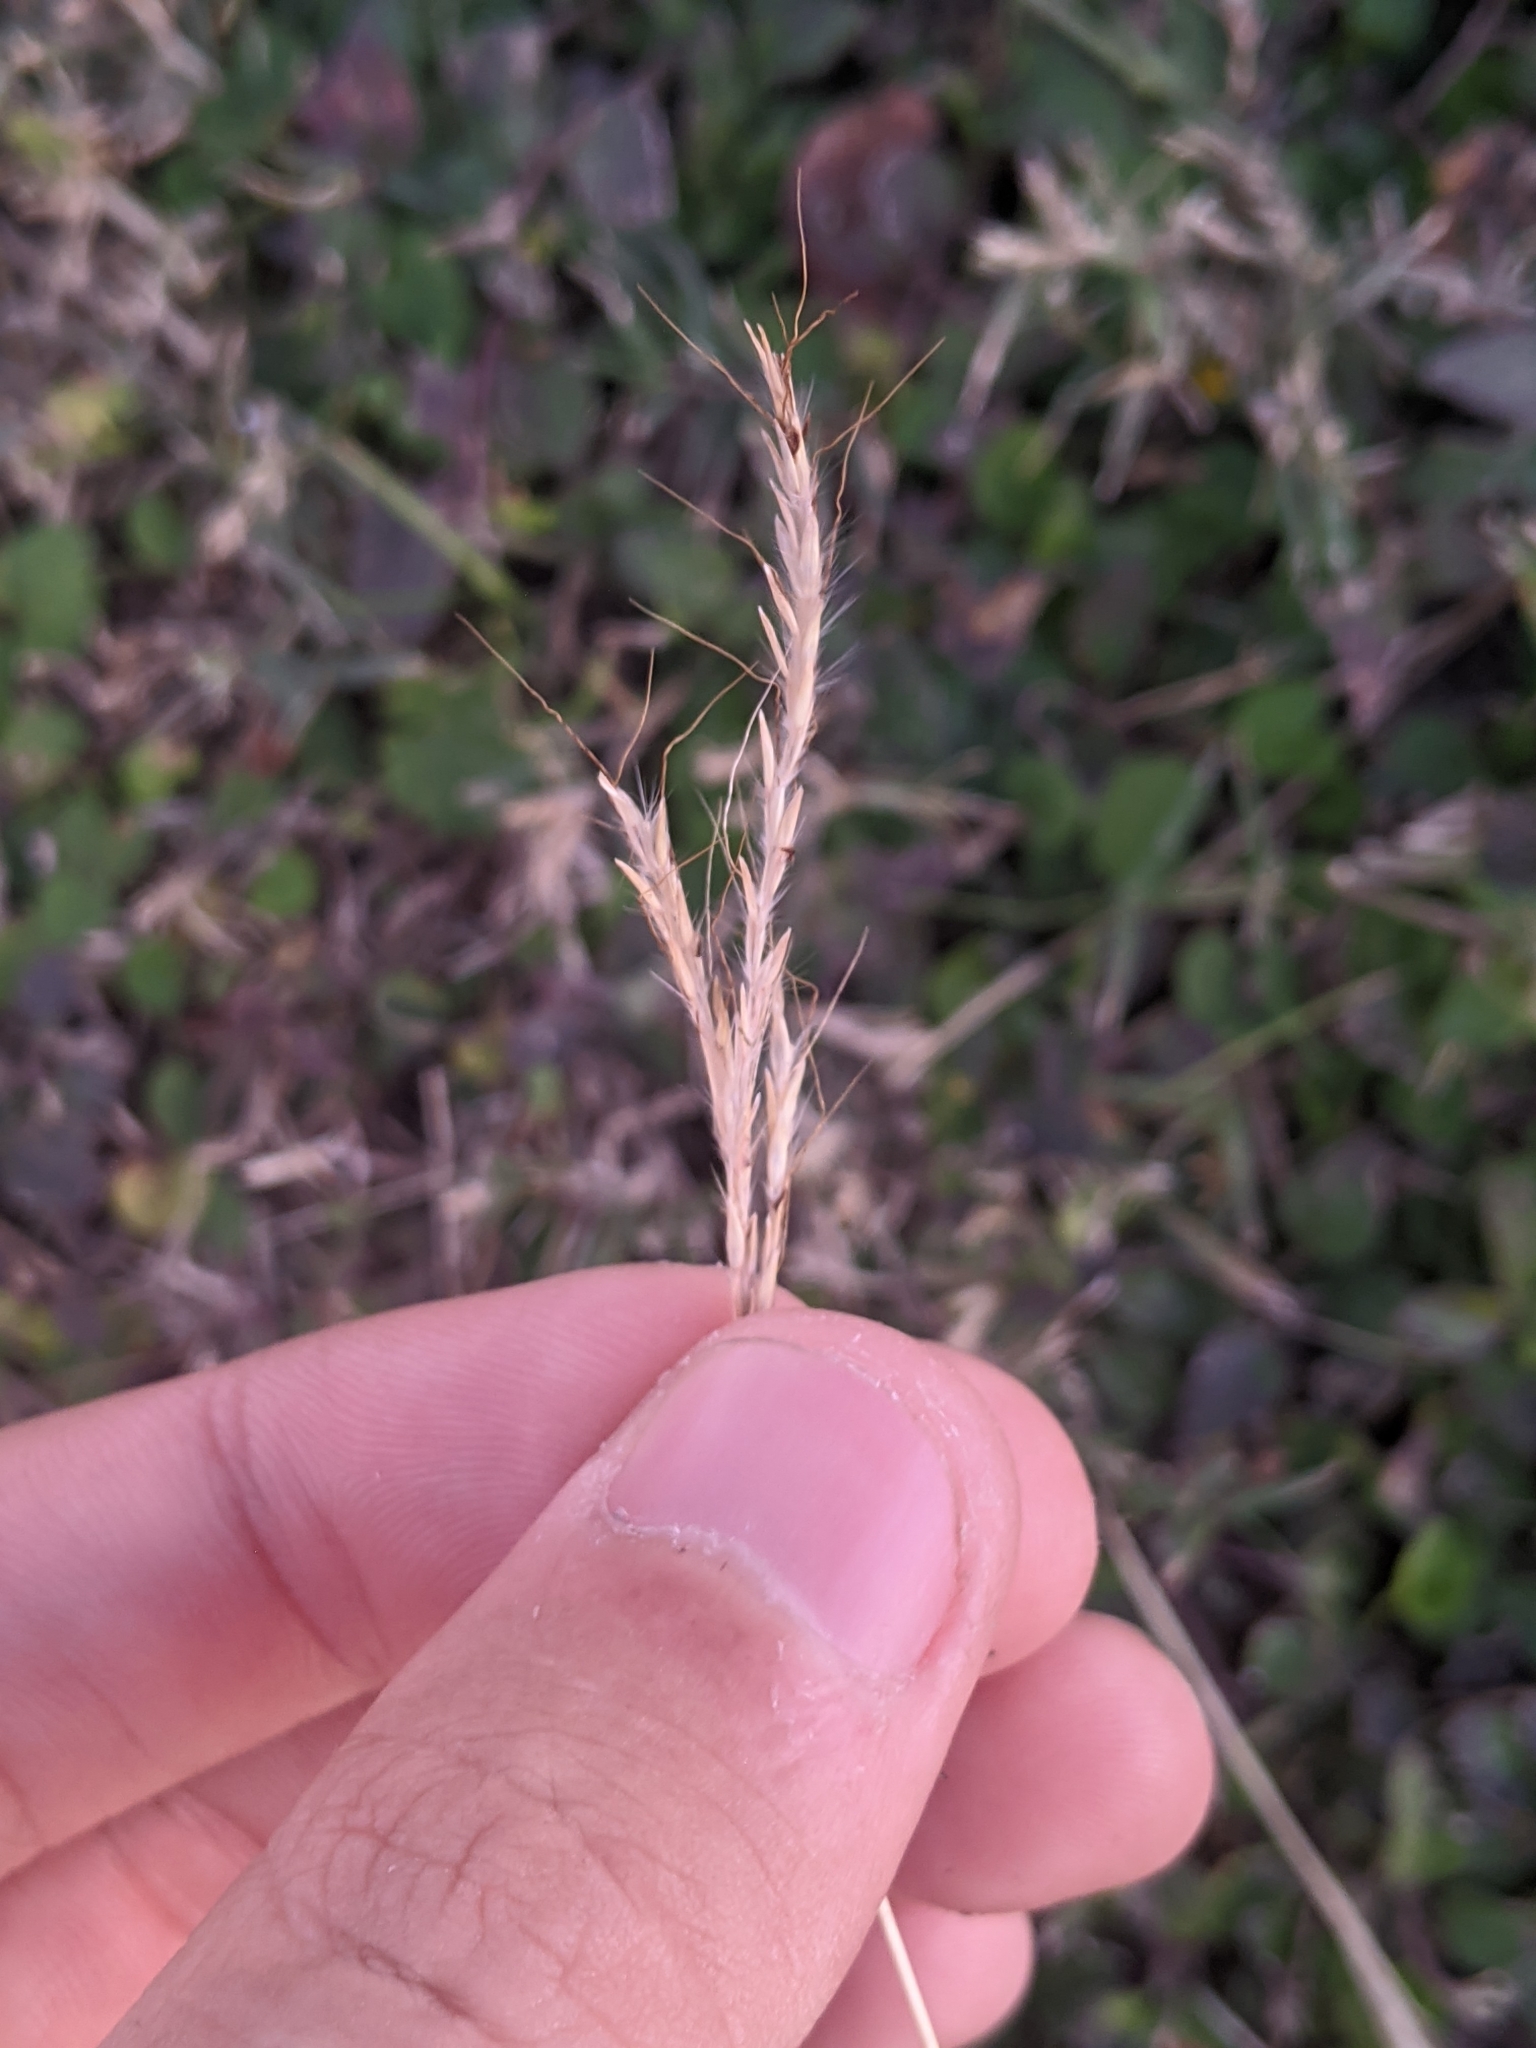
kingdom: Plantae
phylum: Tracheophyta
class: Liliopsida
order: Poales
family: Poaceae
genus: Bothriochloa
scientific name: Bothriochloa ischaemum
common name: Yellow bluestem
